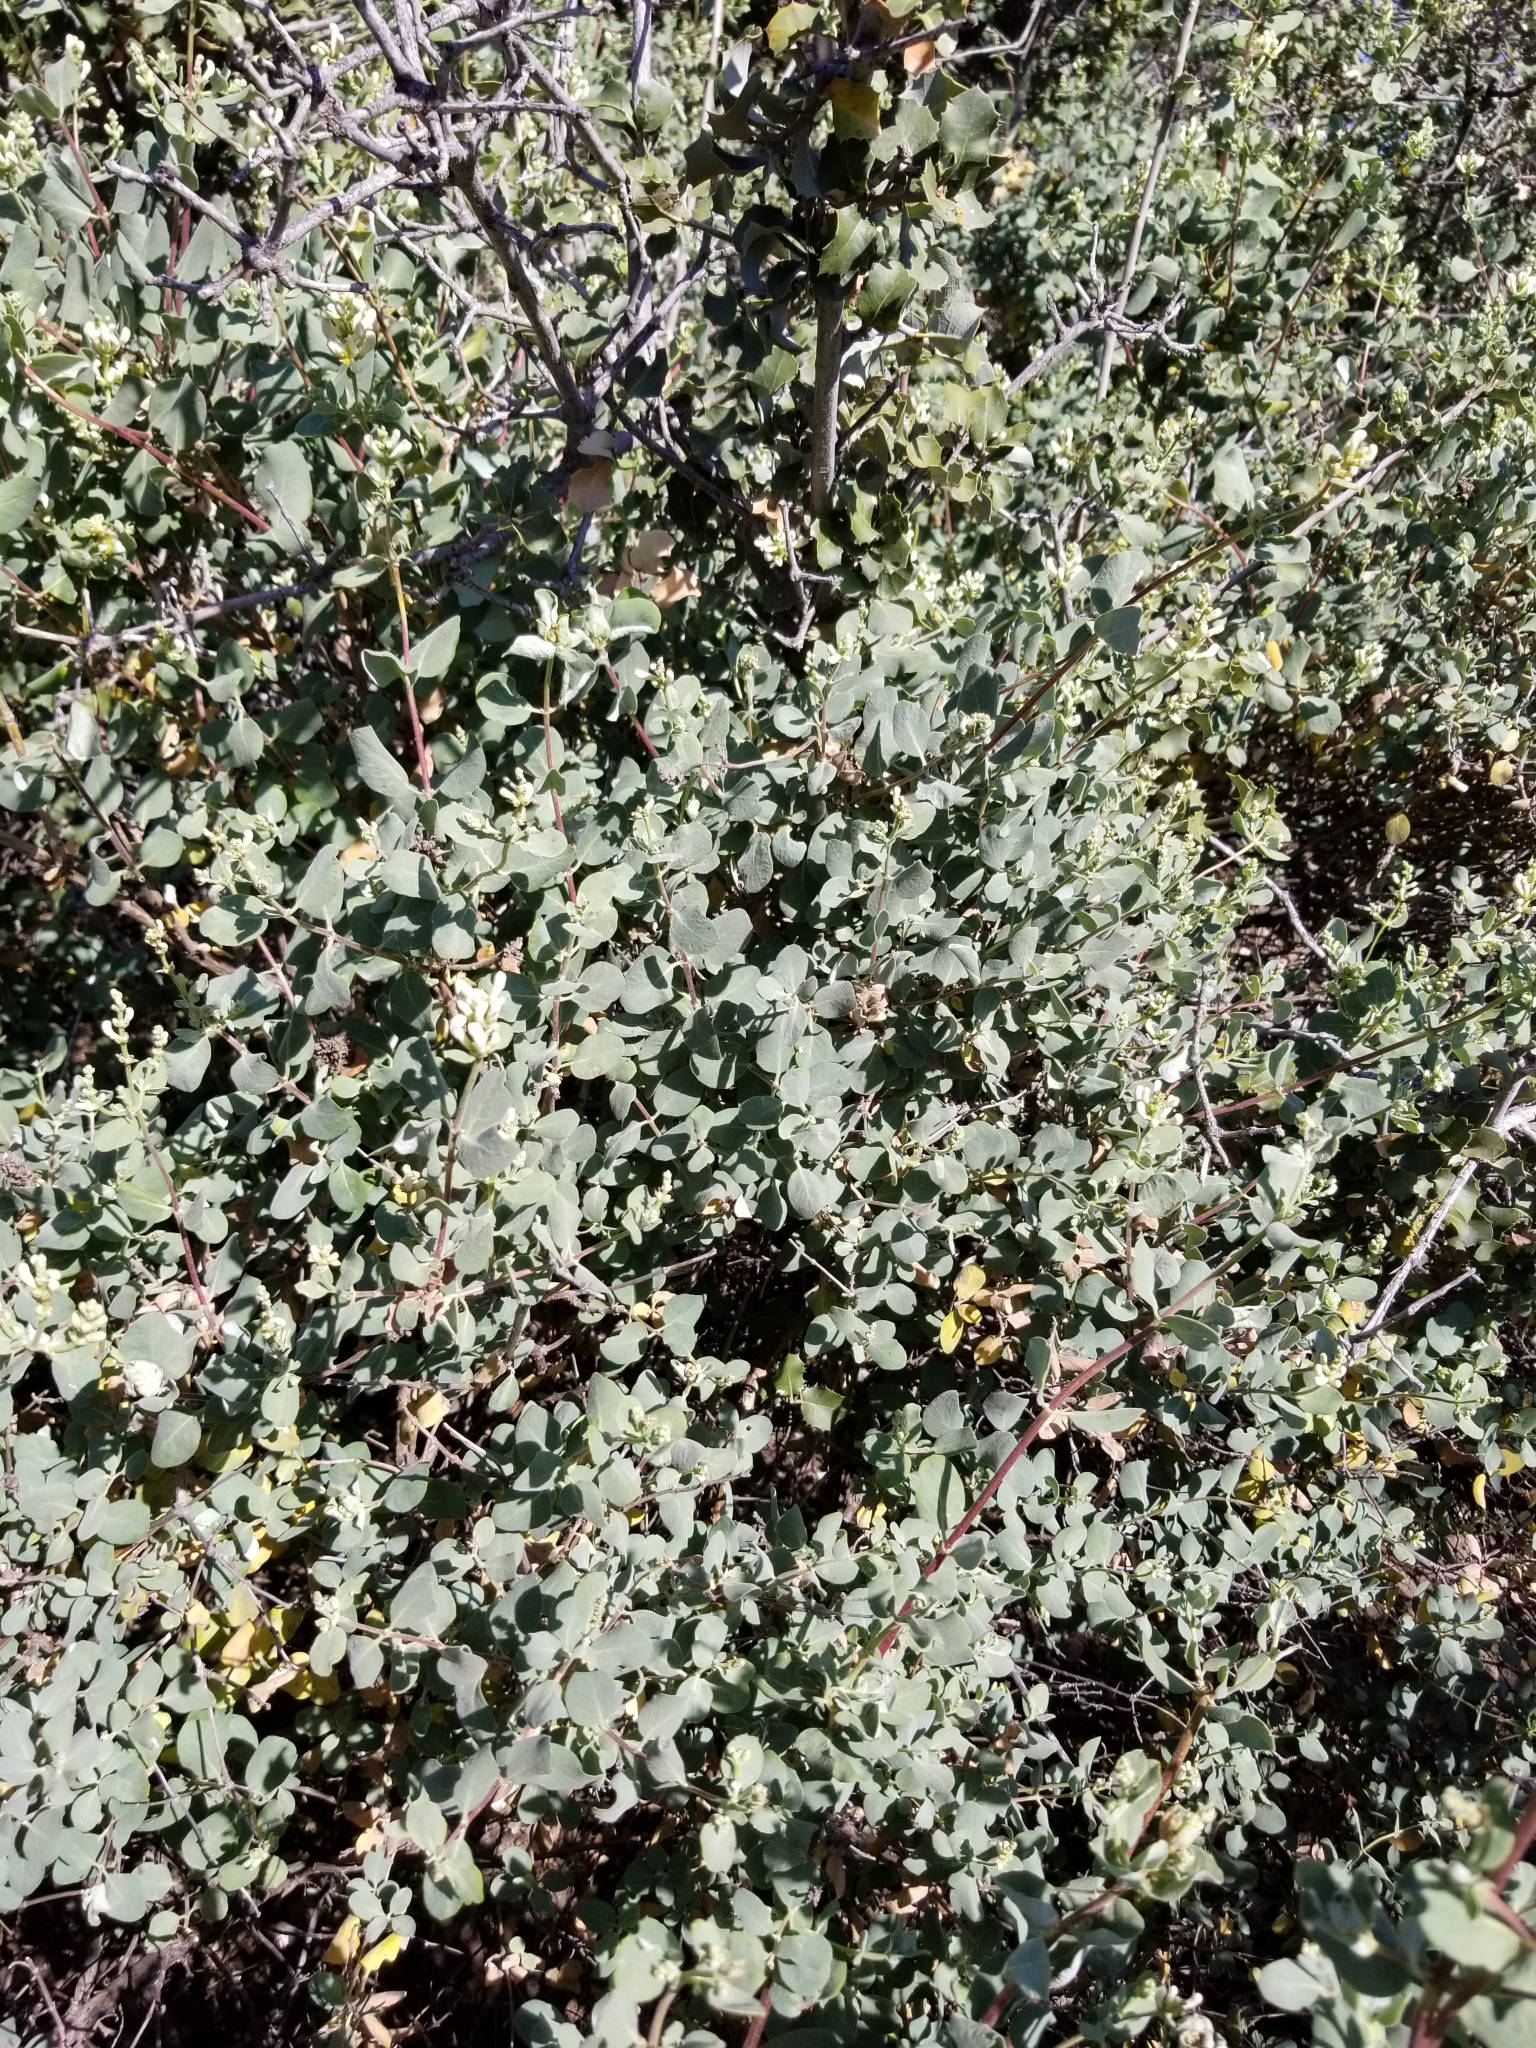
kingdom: Plantae
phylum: Tracheophyta
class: Magnoliopsida
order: Dipsacales
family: Caprifoliaceae
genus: Lonicera
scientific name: Lonicera subspicata
